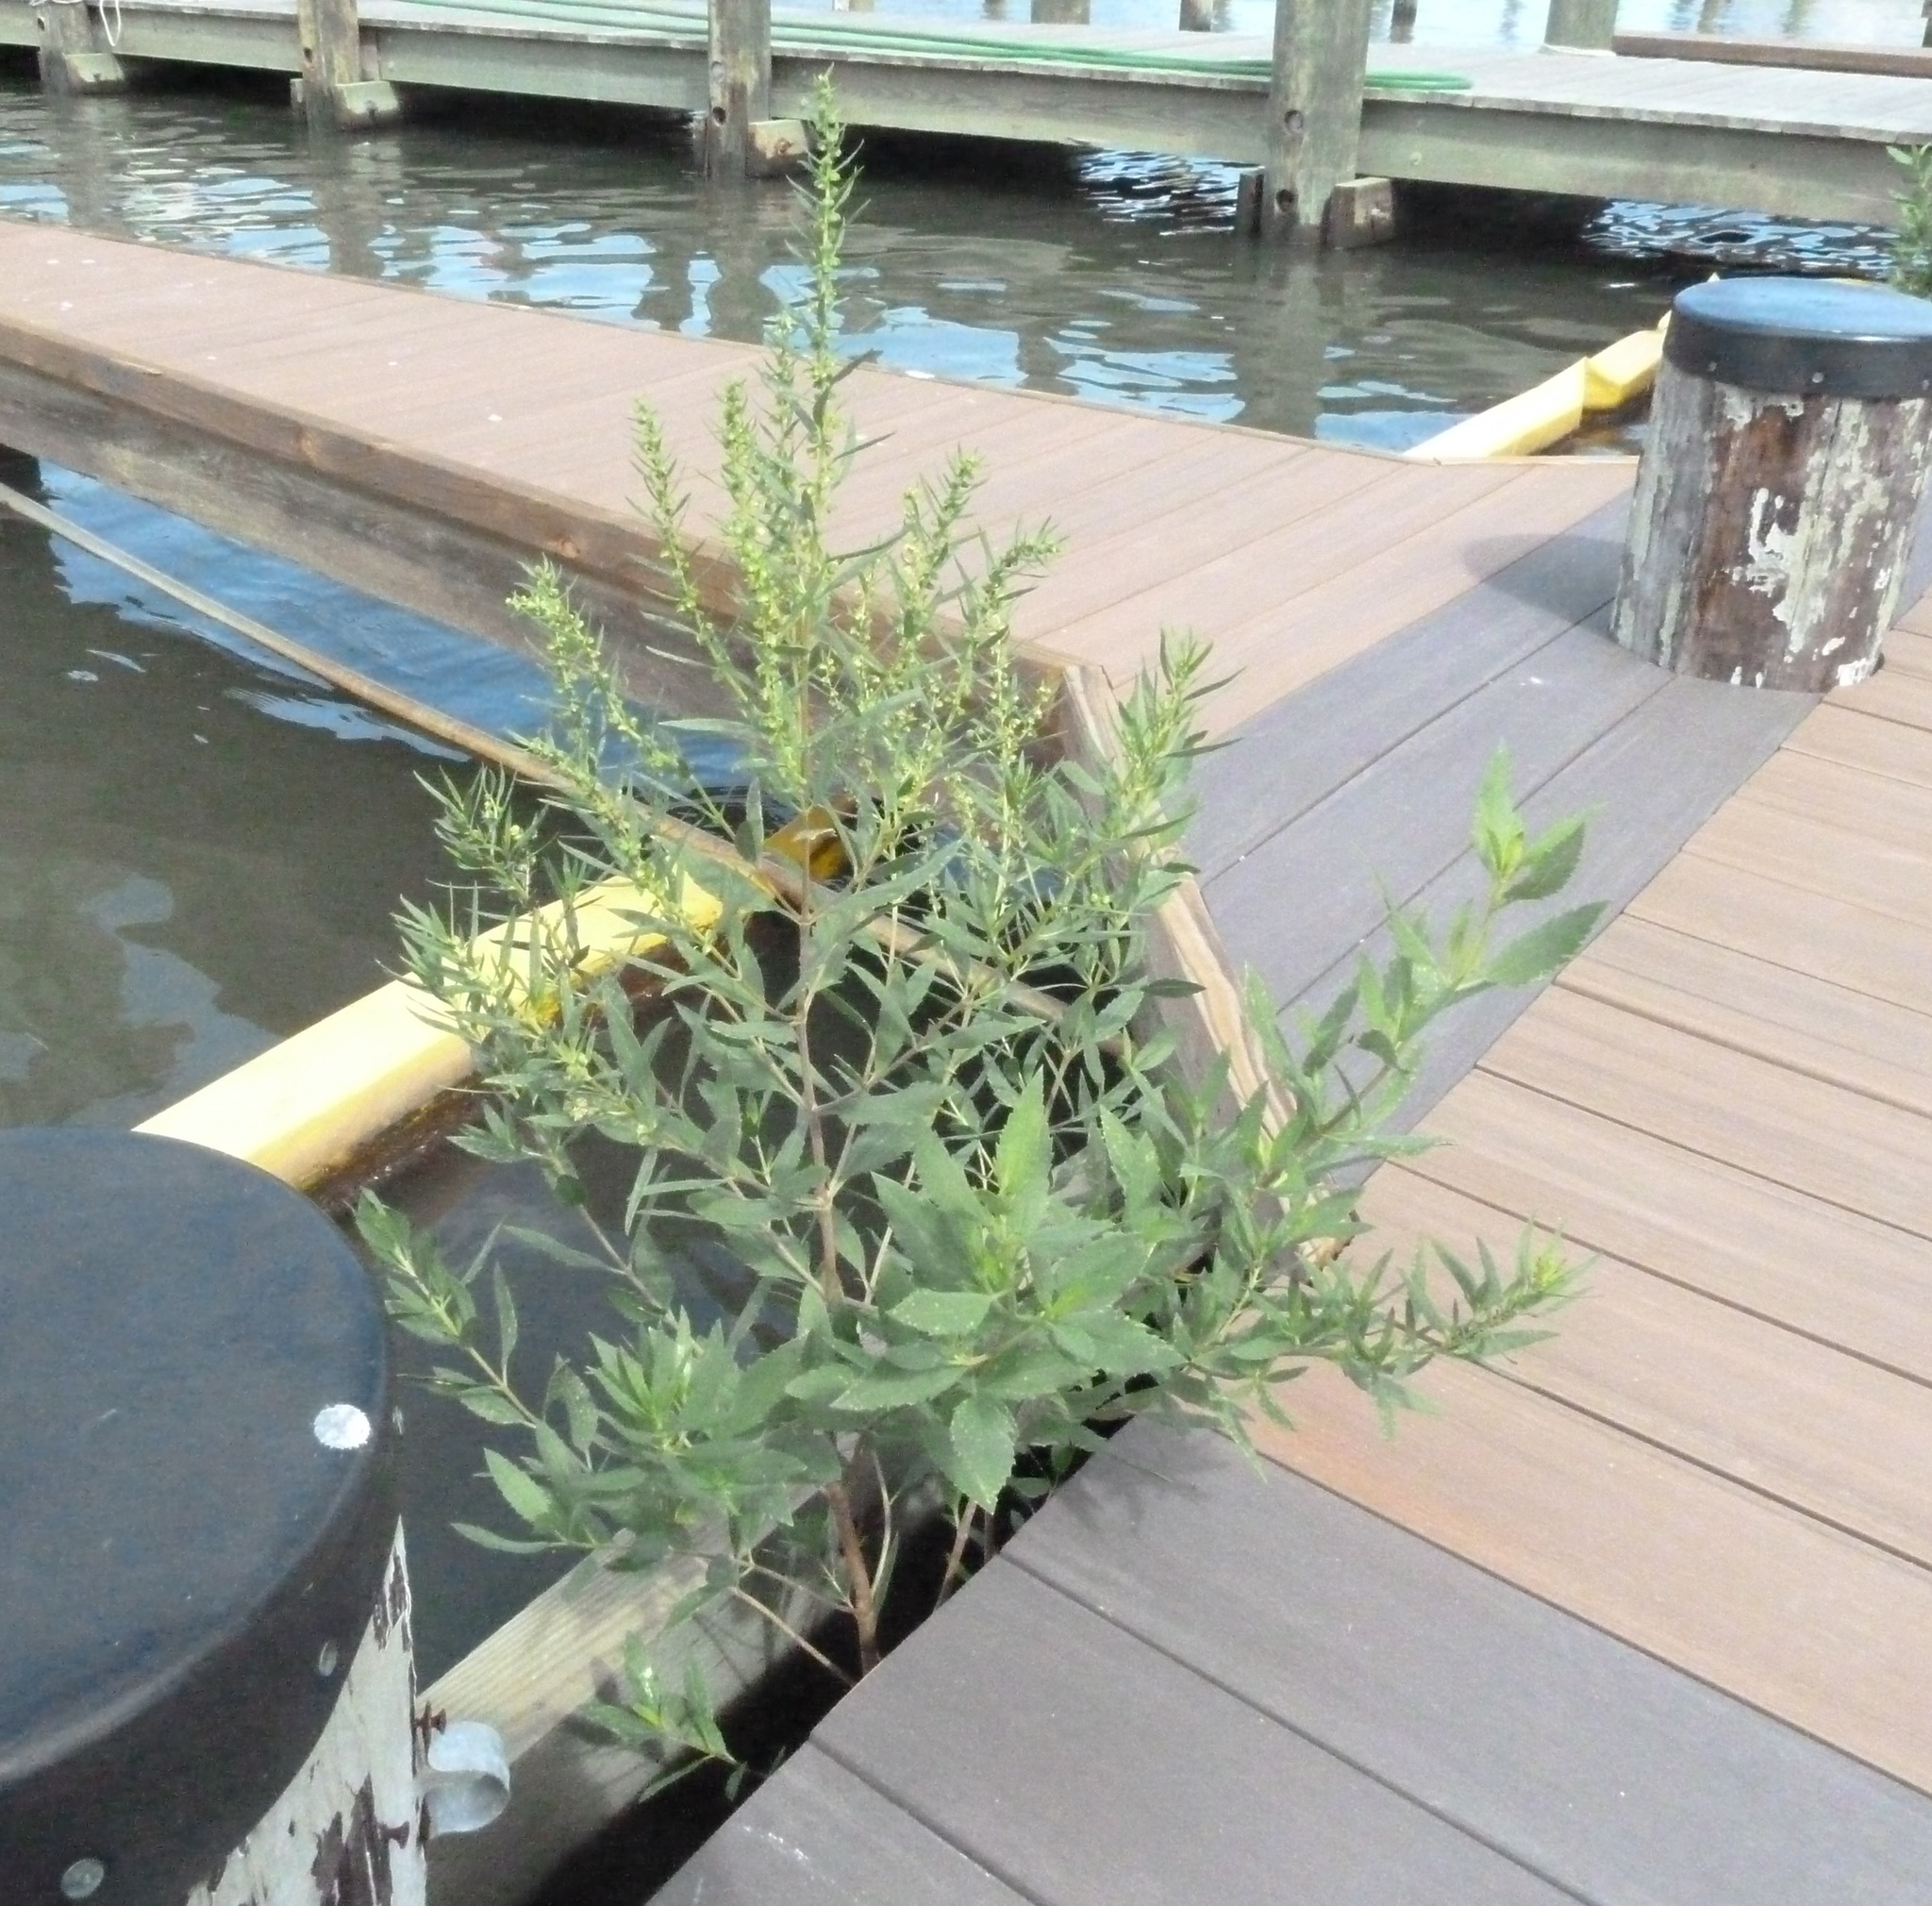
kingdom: Plantae
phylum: Tracheophyta
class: Magnoliopsida
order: Asterales
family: Asteraceae
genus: Iva
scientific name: Iva frutescens
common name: Big-leaved marsh-elder
